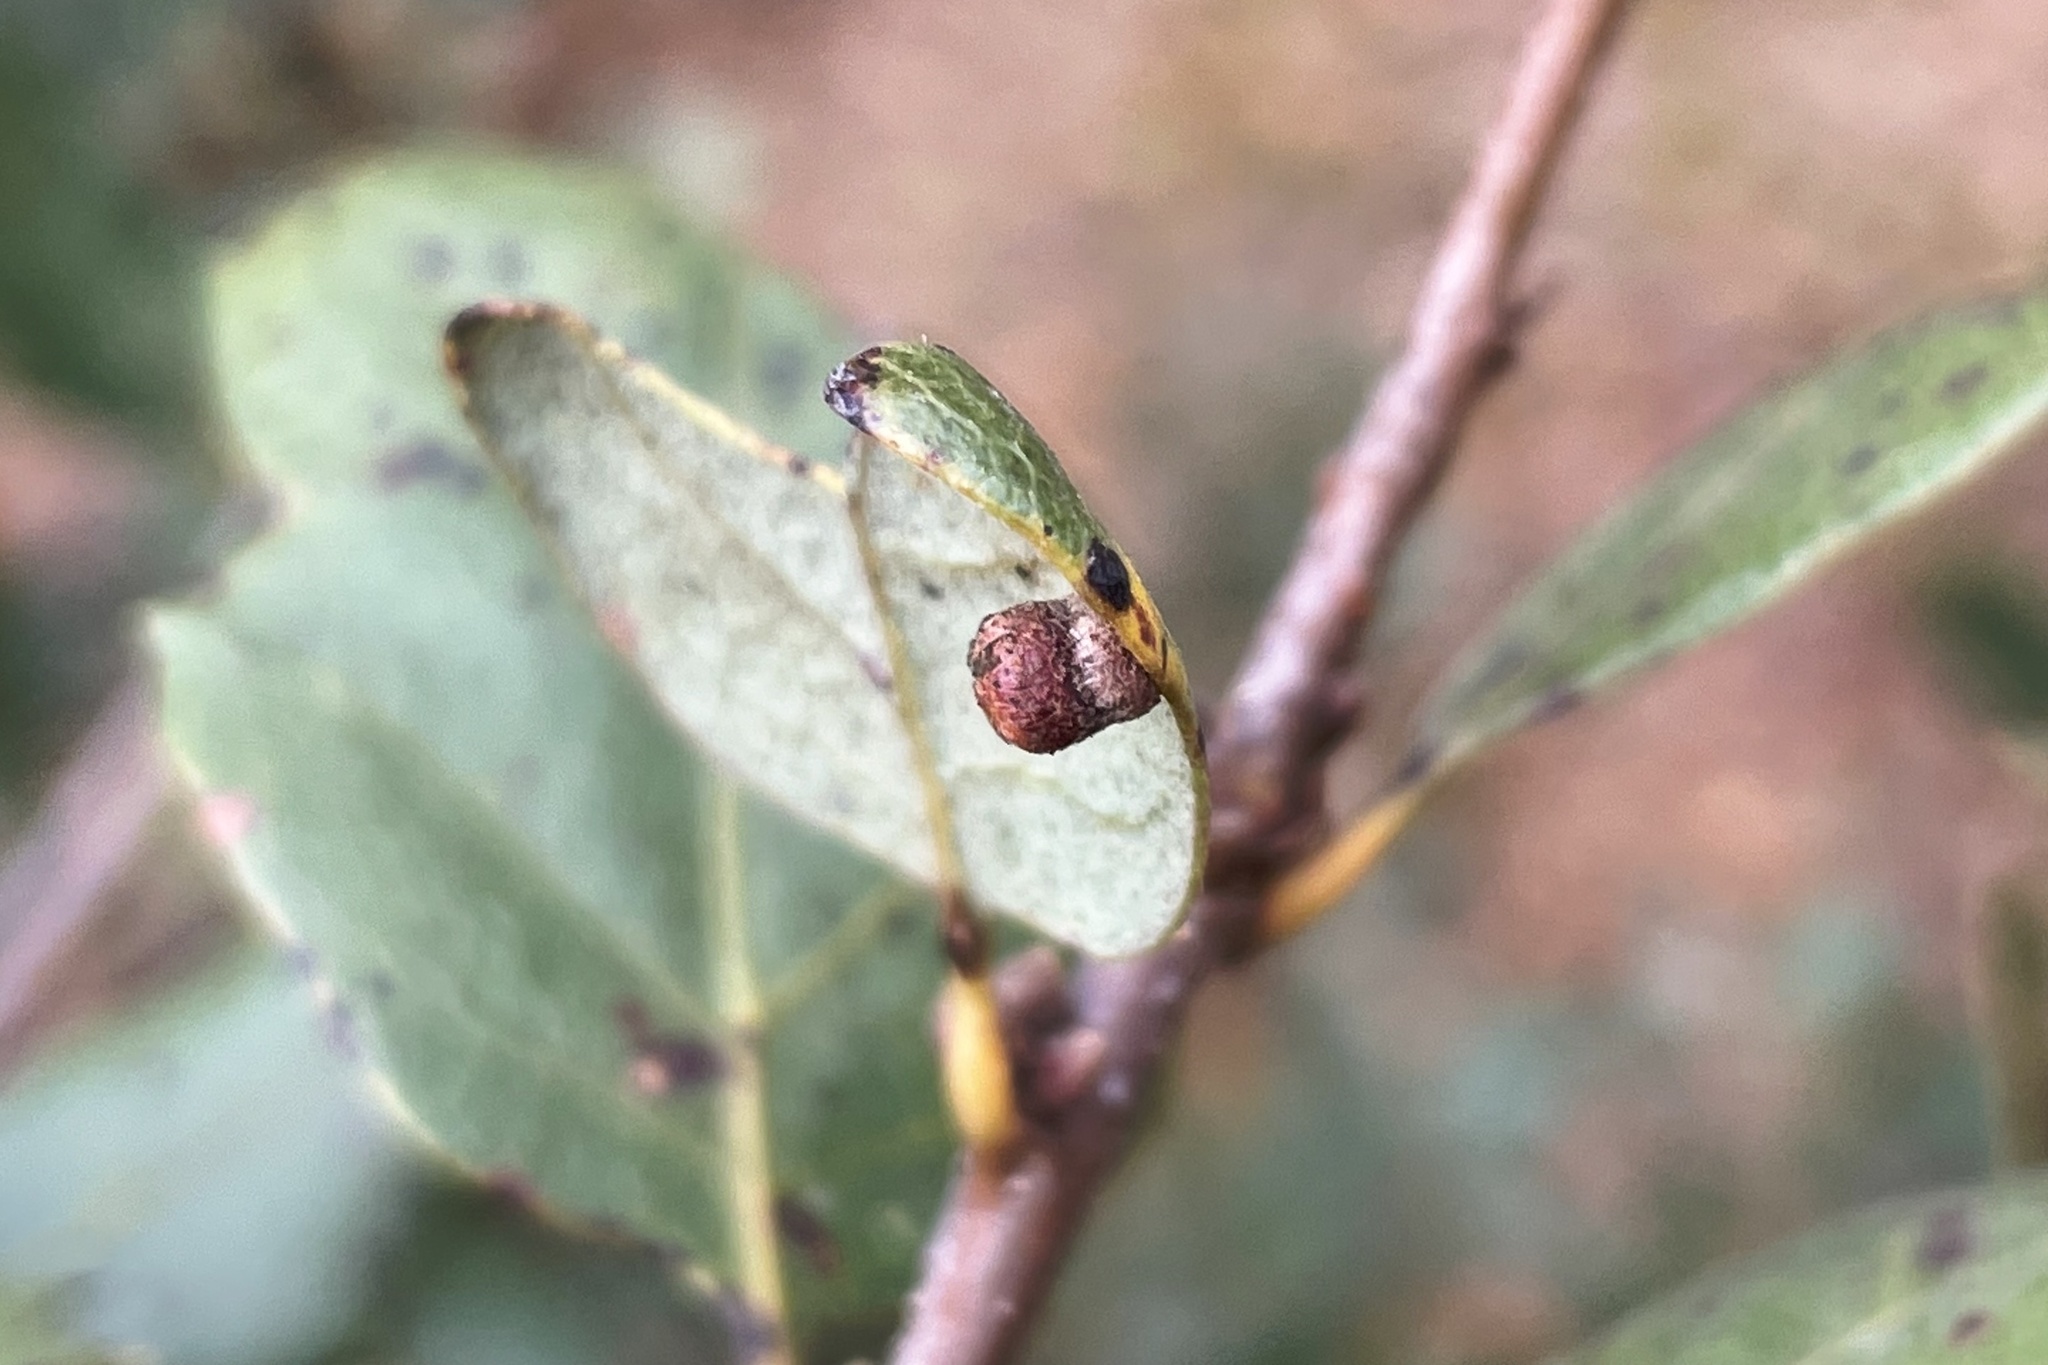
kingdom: Animalia
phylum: Arthropoda
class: Insecta
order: Hymenoptera
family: Cynipidae
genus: Phylloteras
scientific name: Phylloteras
